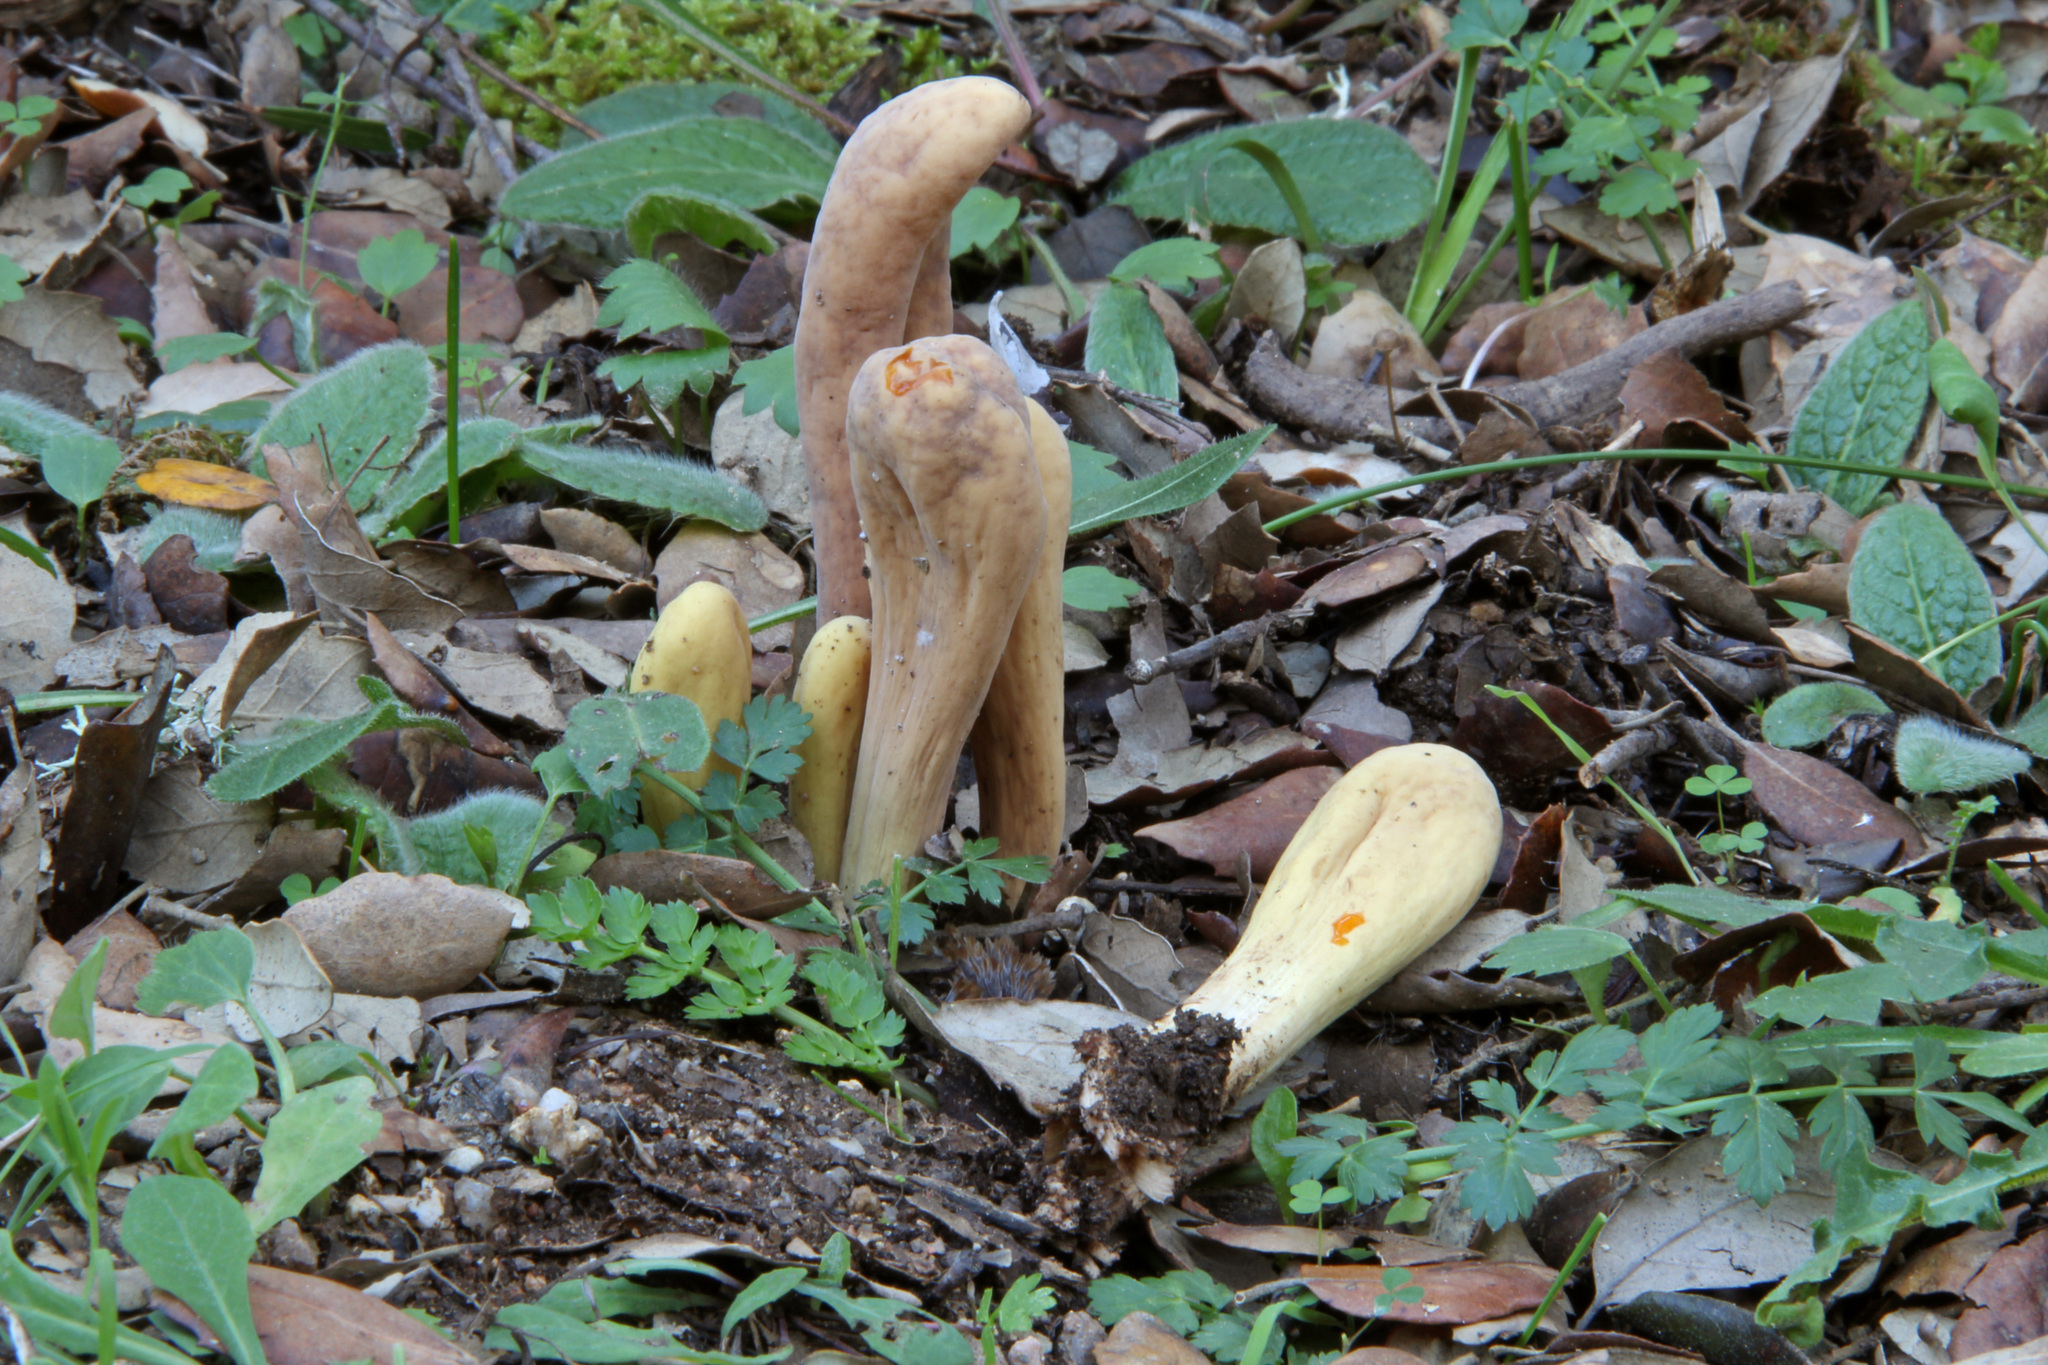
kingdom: Fungi
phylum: Basidiomycota
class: Agaricomycetes
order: Gomphales
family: Clavariadelphaceae
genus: Clavariadelphus
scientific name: Clavariadelphus flavoimmaturus
